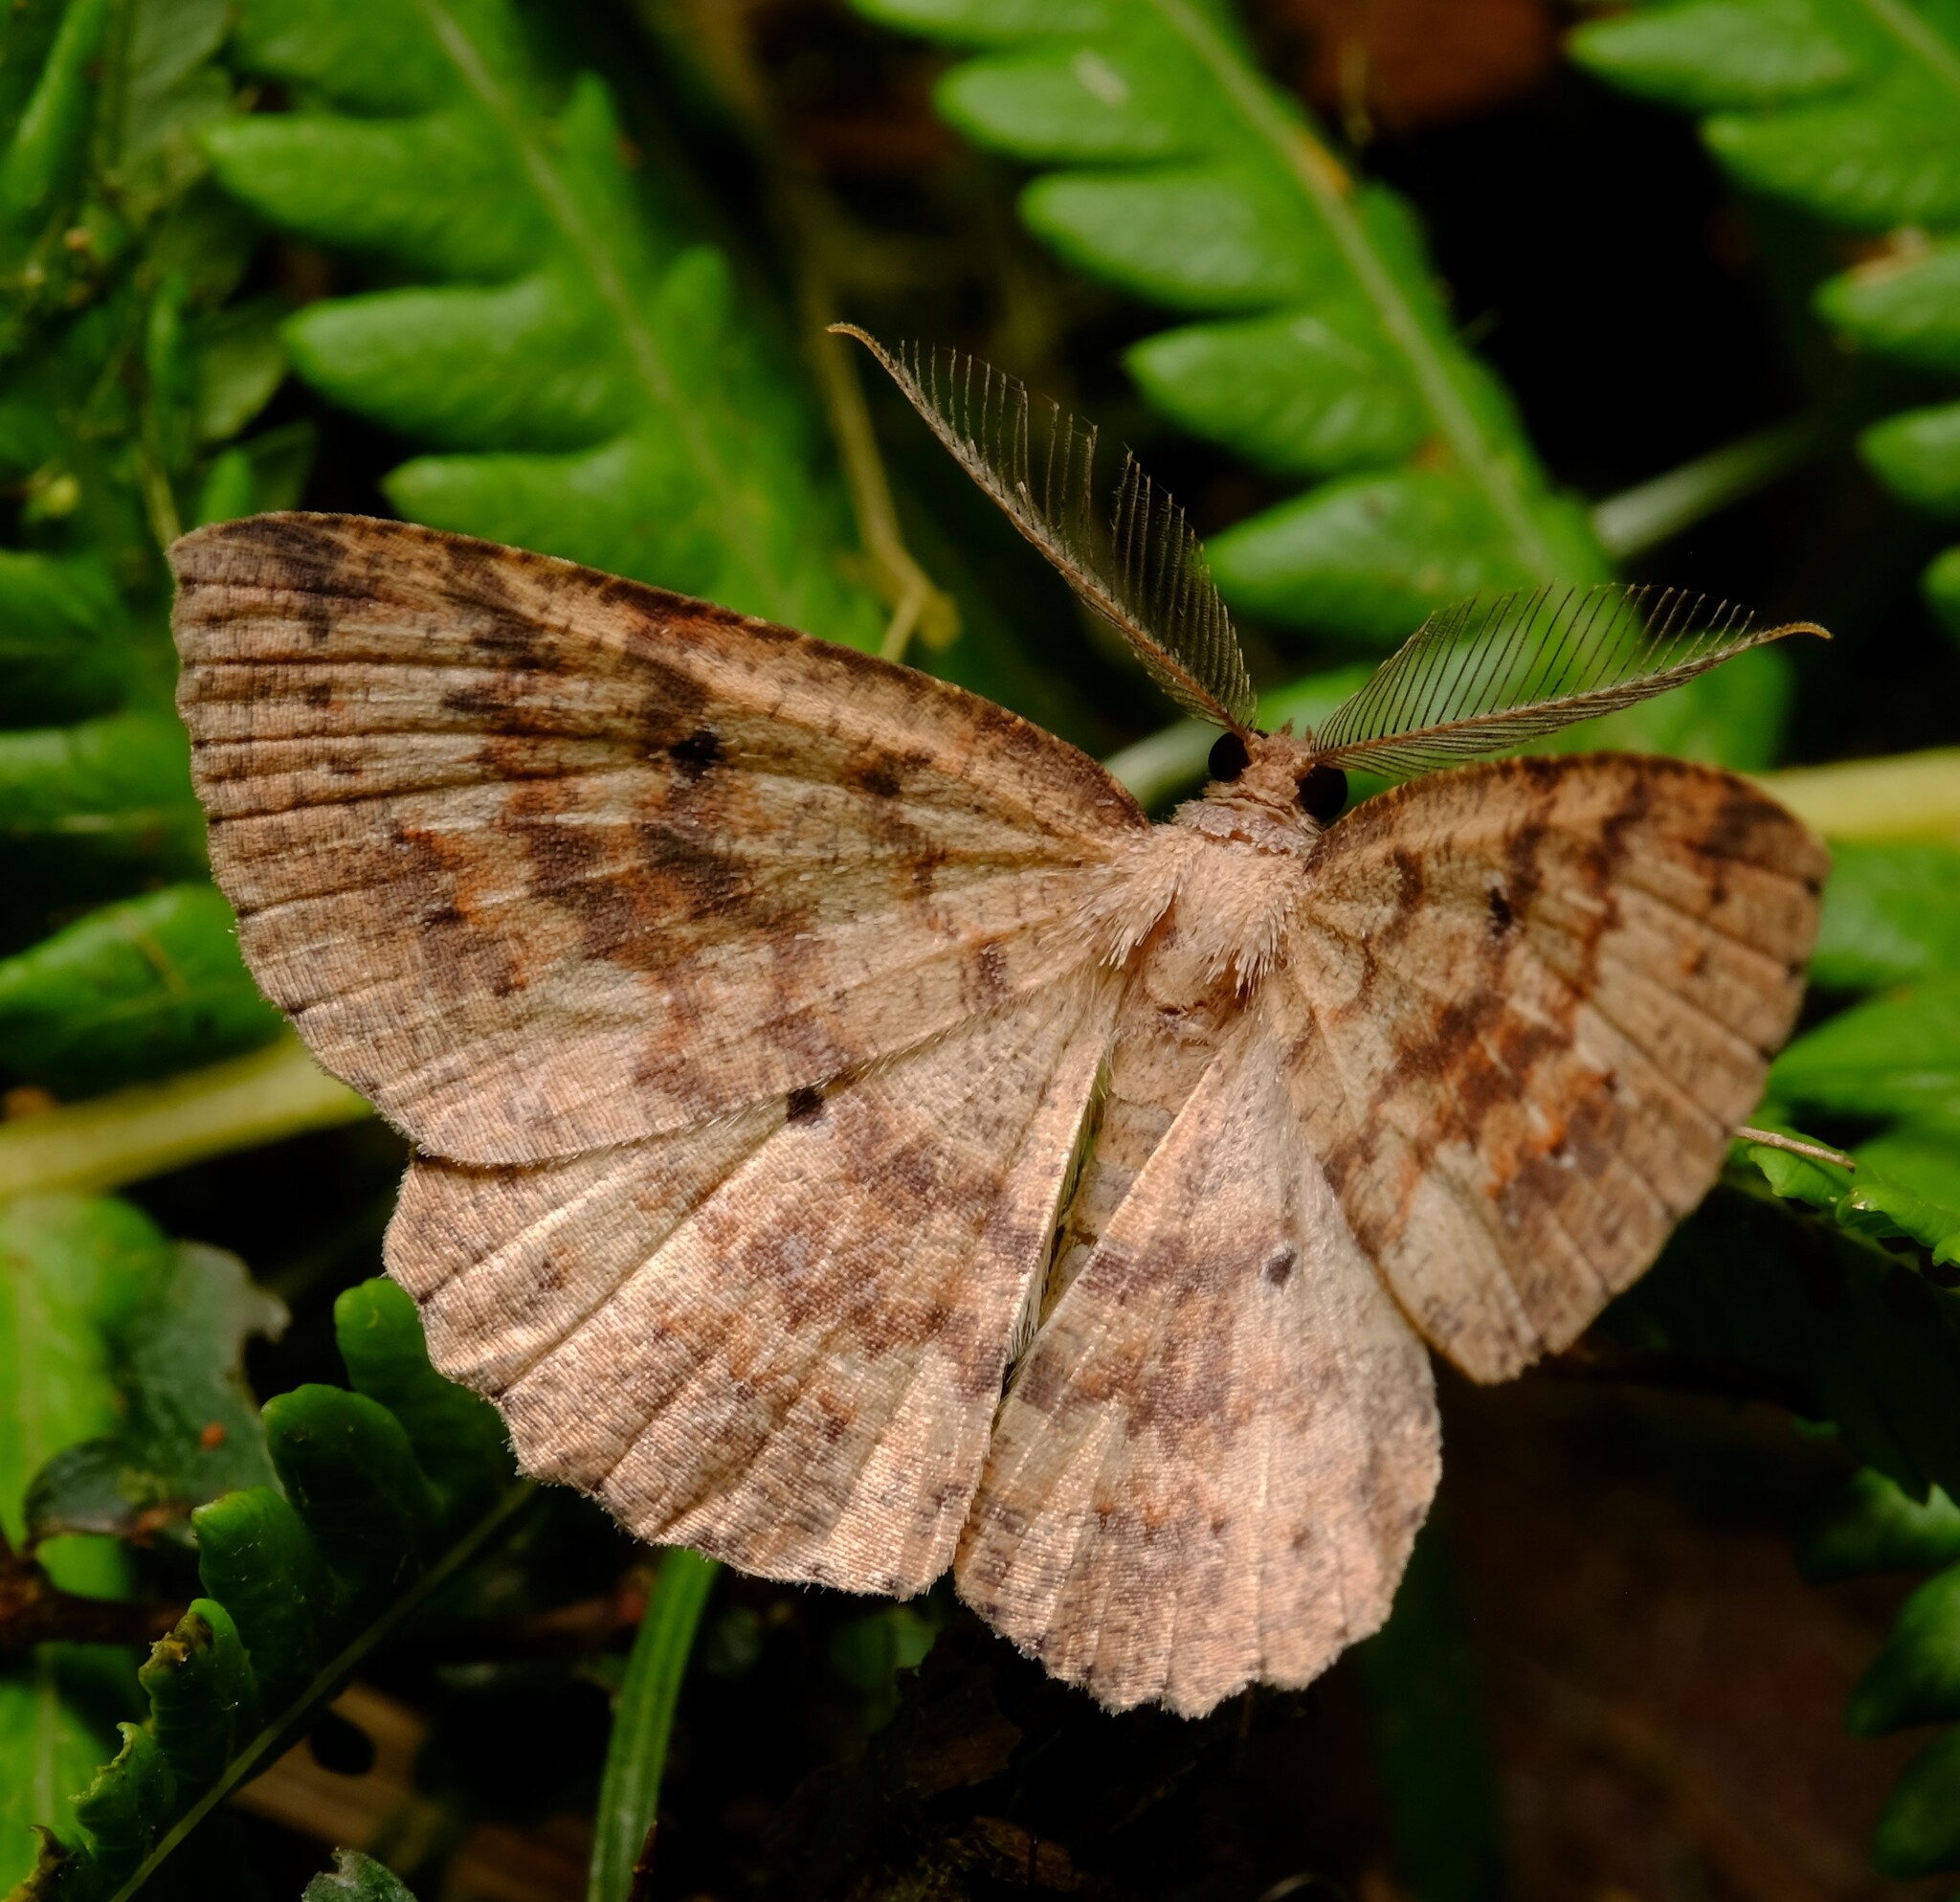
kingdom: Animalia
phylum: Arthropoda
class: Insecta
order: Lepidoptera
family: Geometridae
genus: Casbia
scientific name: Casbia melanops
